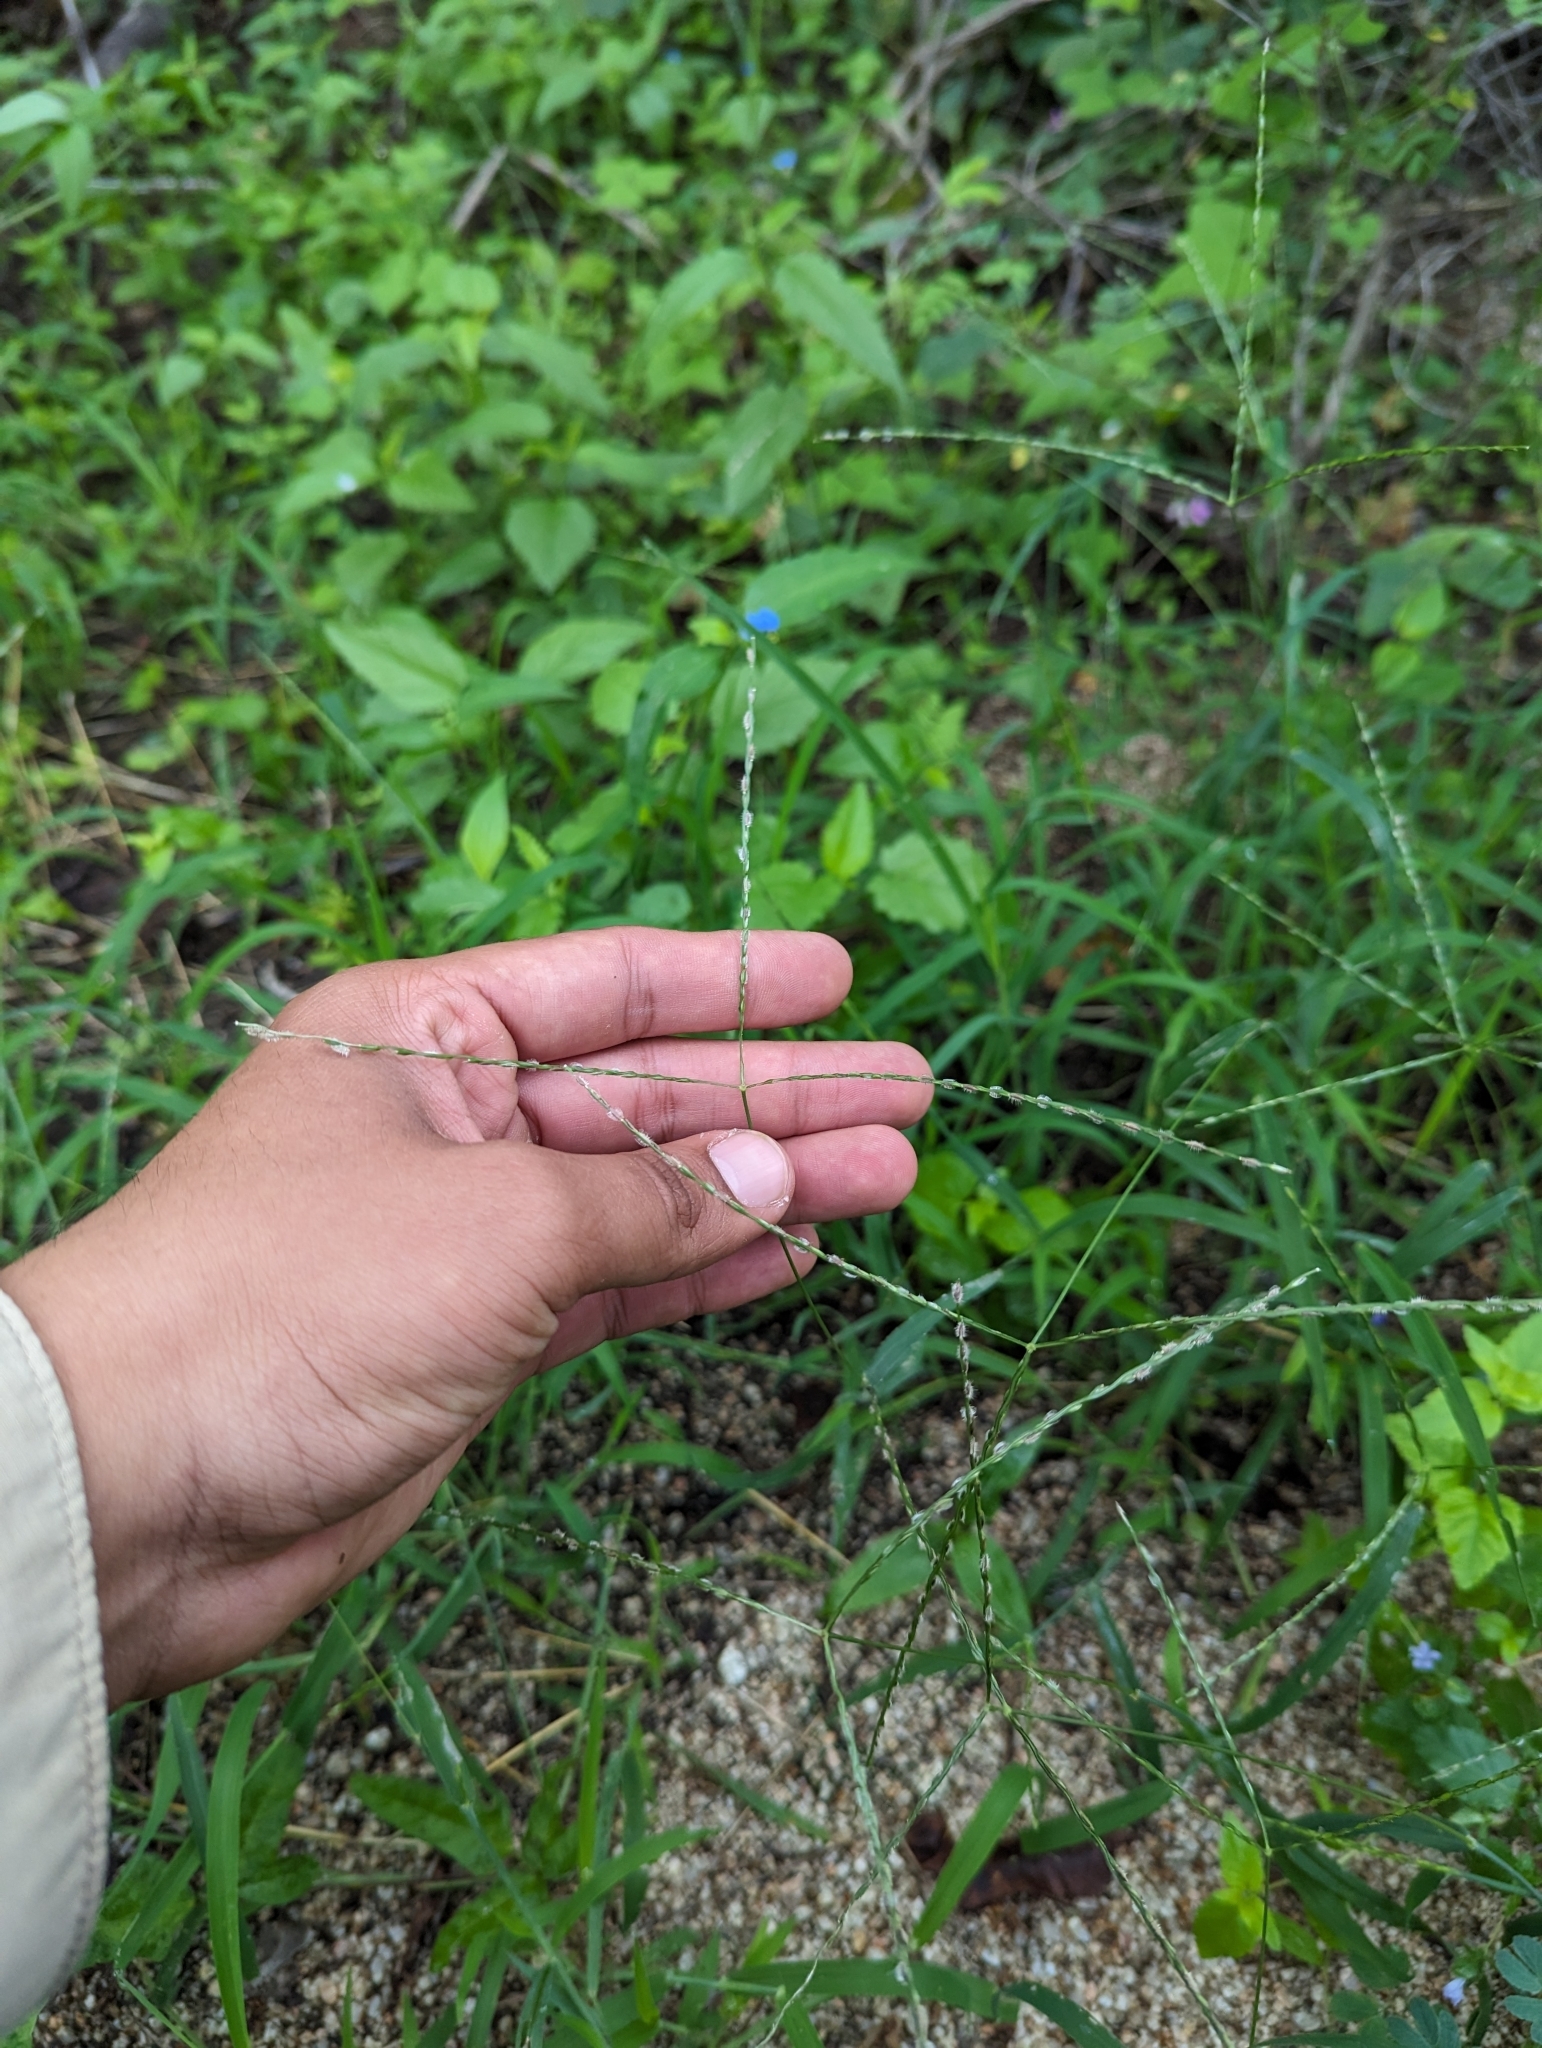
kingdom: Plantae
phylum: Tracheophyta
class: Liliopsida
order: Poales
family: Poaceae
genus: Digitaria
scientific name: Digitaria bicornis
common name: Asian crabgrass
